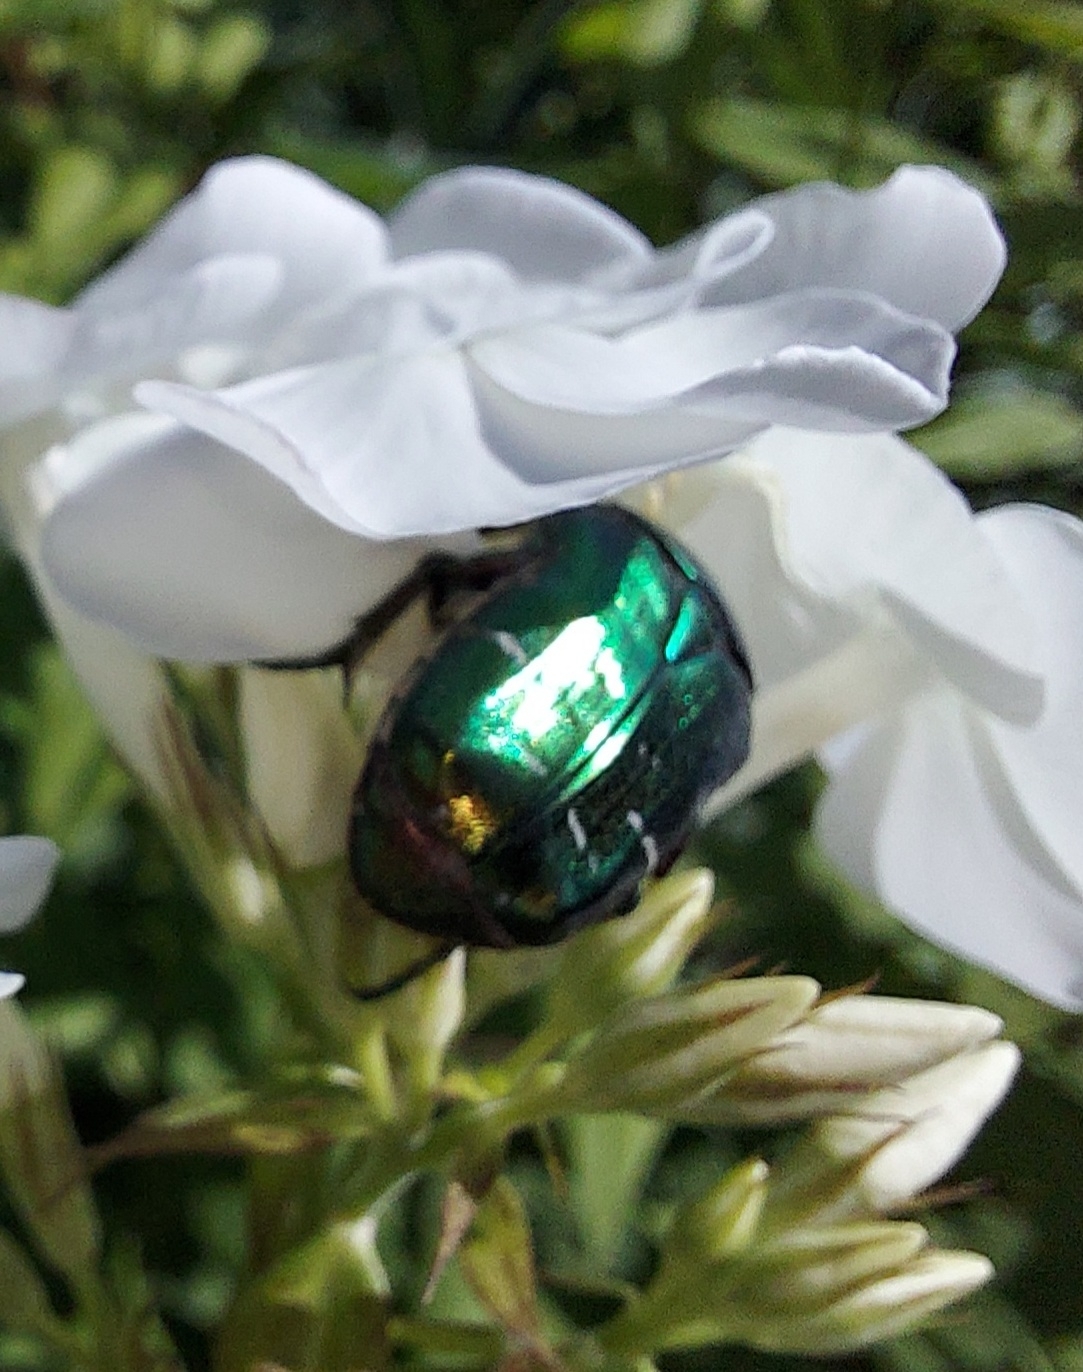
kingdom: Animalia
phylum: Arthropoda
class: Insecta
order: Coleoptera
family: Scarabaeidae
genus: Cetonia
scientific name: Cetonia aurata
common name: Rose chafer
